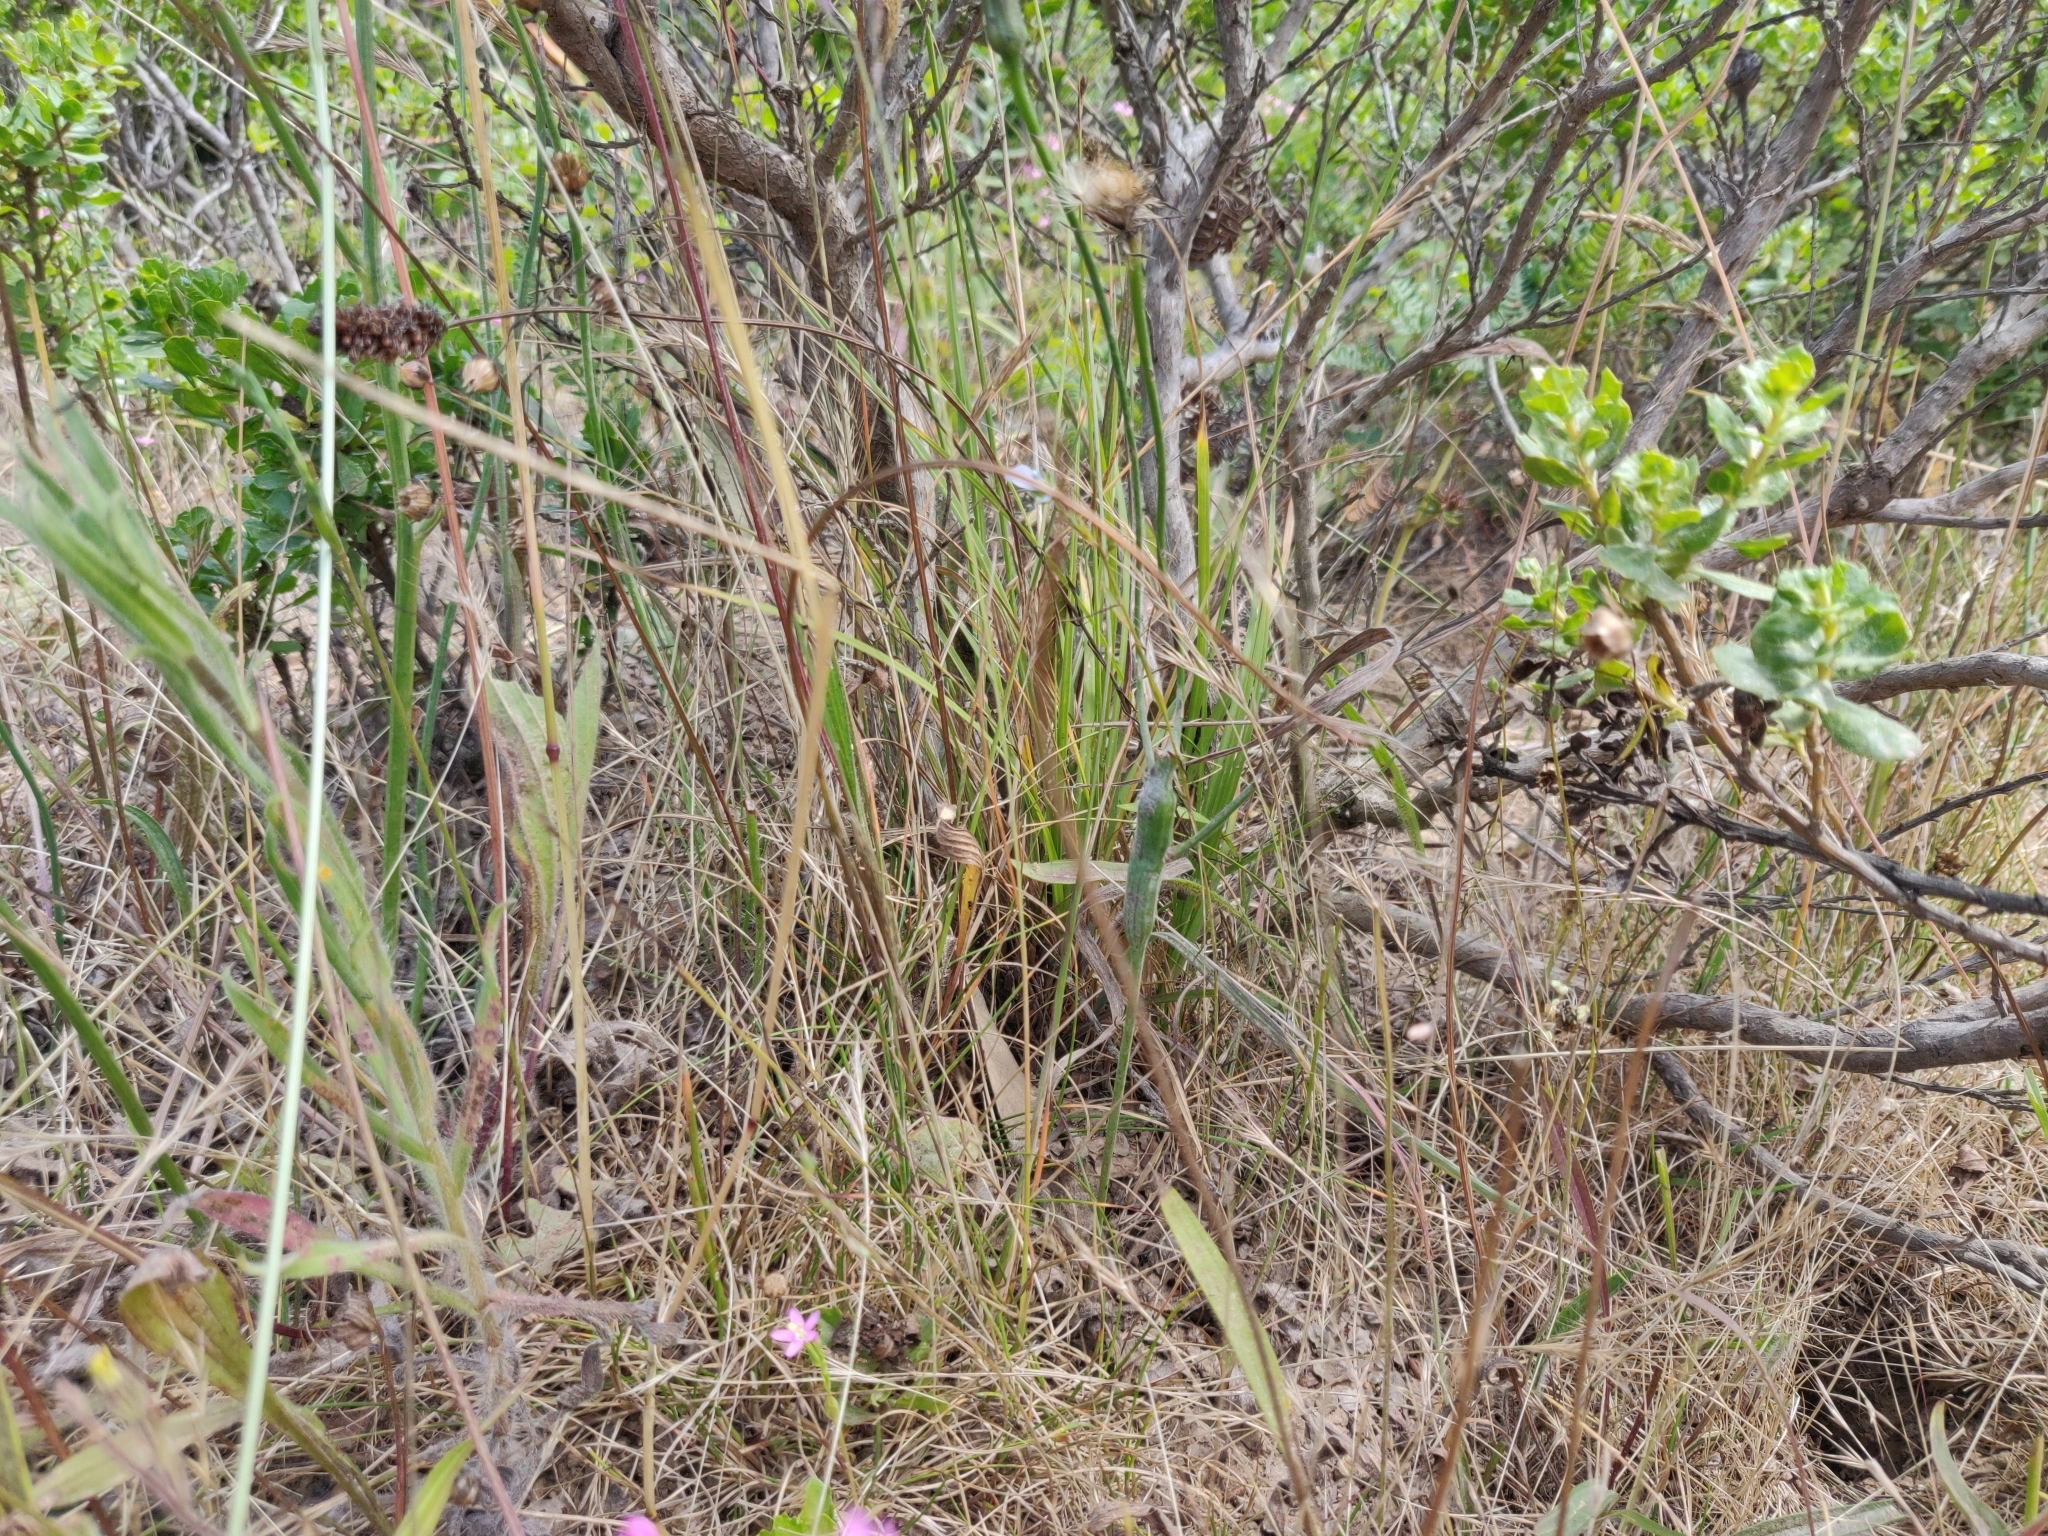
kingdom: Animalia
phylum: Arthropoda
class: Insecta
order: Hymenoptera
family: Cynipidae
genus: Phanacis
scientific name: Phanacis hypochoeridis
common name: Gall wasp
